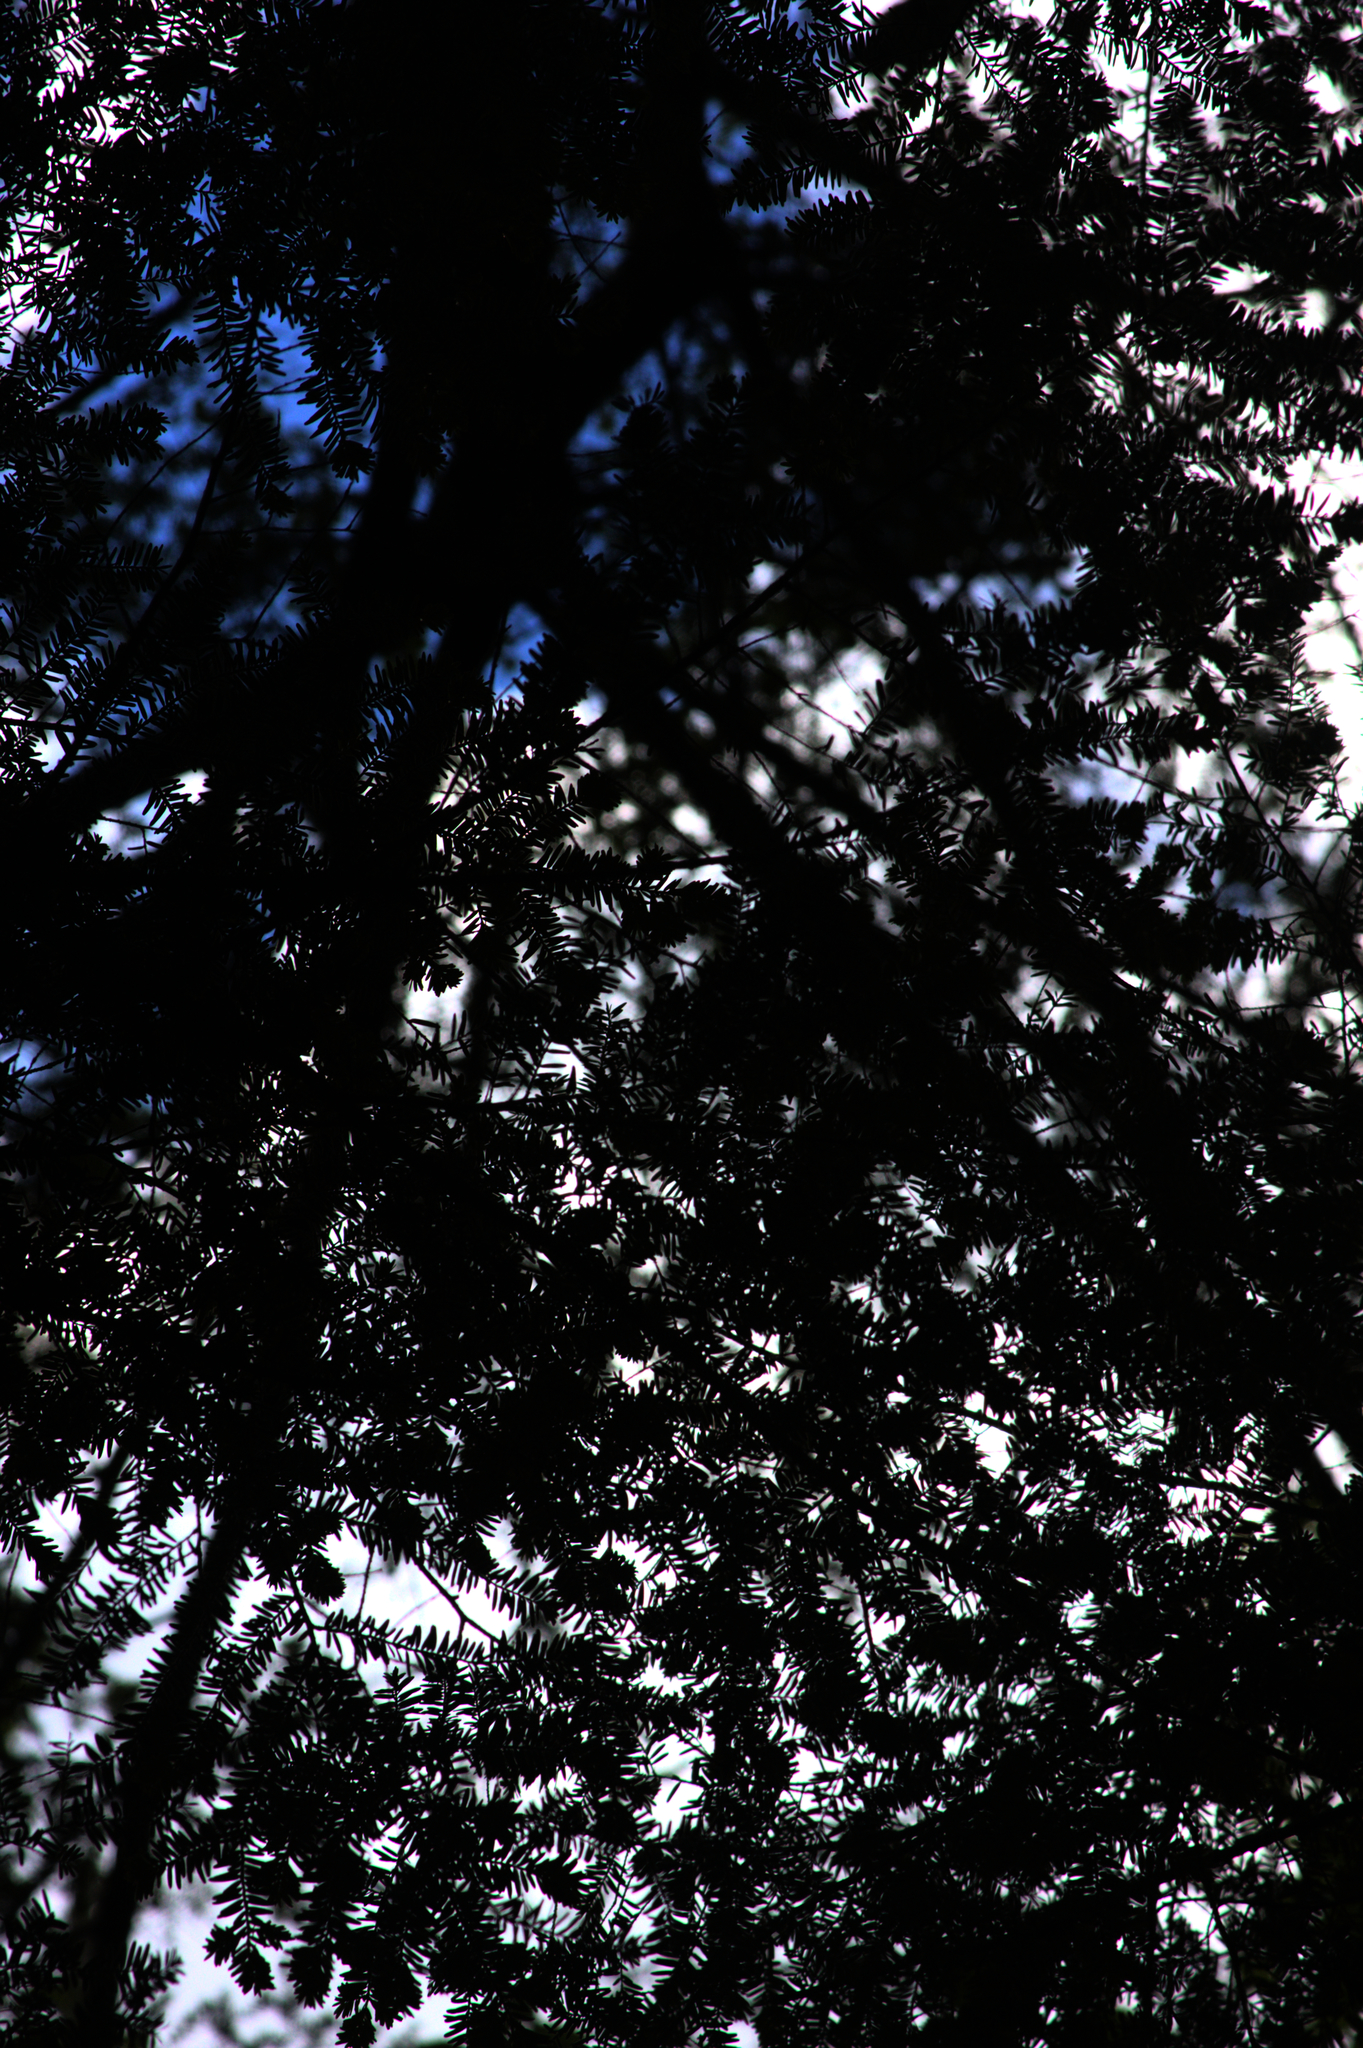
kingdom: Plantae
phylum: Tracheophyta
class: Pinopsida
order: Pinales
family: Pinaceae
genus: Tsuga
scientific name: Tsuga canadensis
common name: Eastern hemlock
